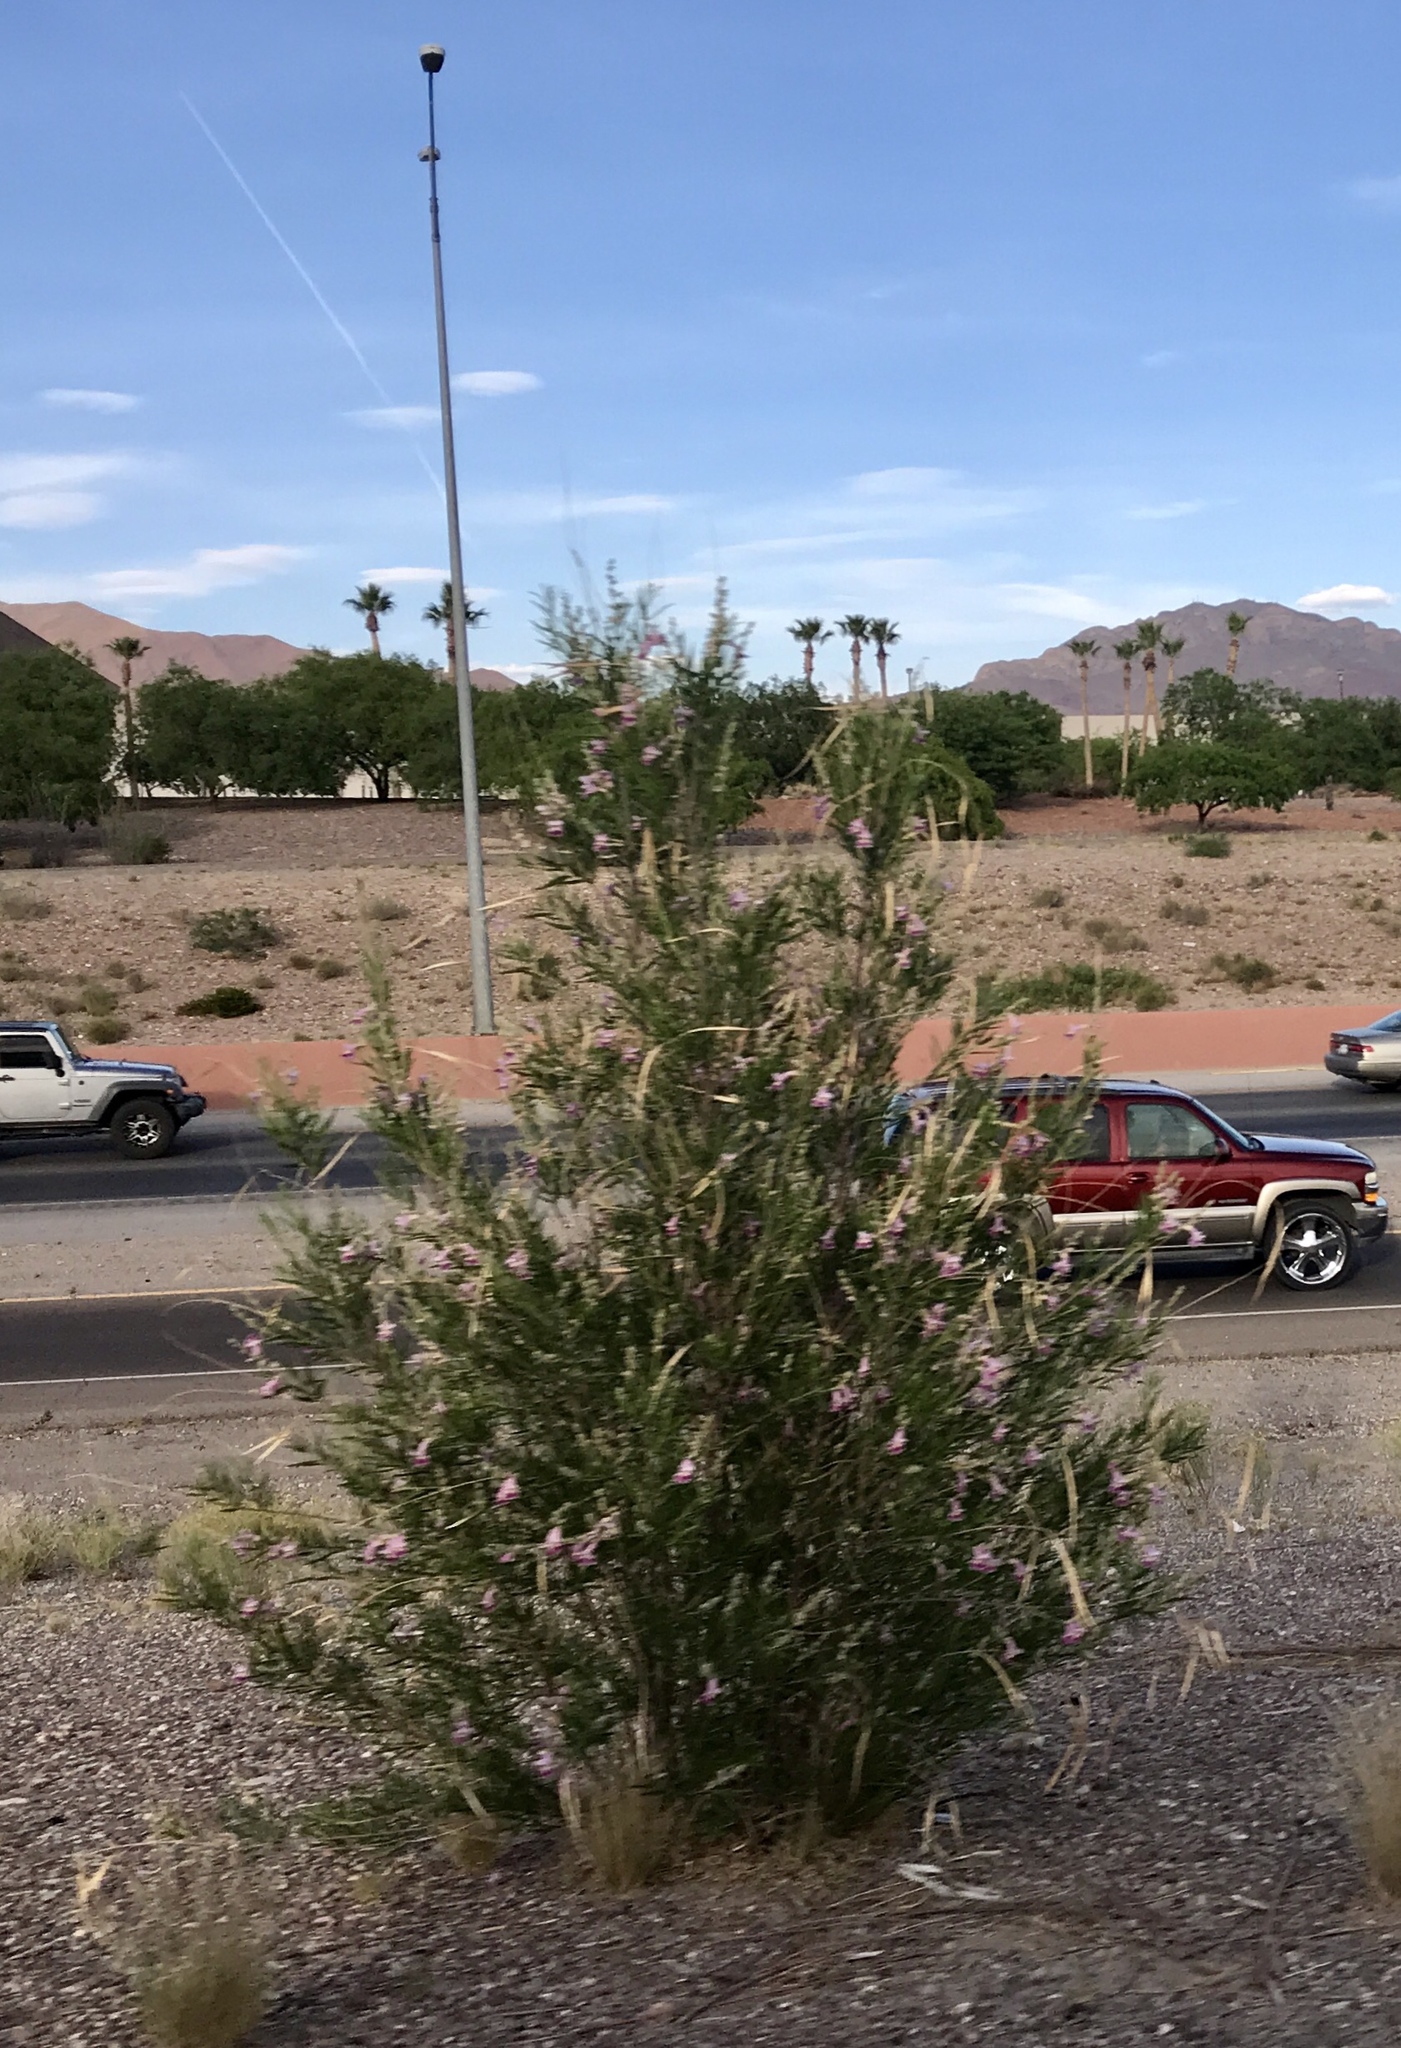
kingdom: Plantae
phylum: Tracheophyta
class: Magnoliopsida
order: Lamiales
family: Bignoniaceae
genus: Chilopsis
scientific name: Chilopsis linearis
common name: Desert-willow
